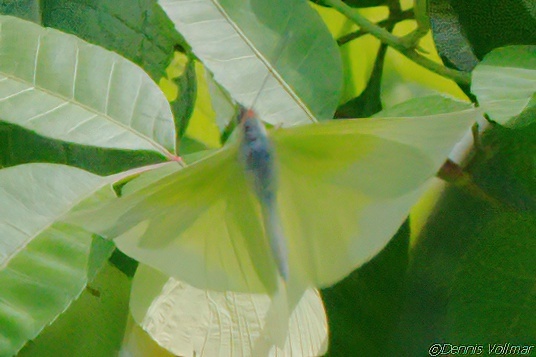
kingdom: Animalia
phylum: Arthropoda
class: Insecta
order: Lepidoptera
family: Pieridae
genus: Aphrissa
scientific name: Aphrissa statira
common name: Statira sulphur
